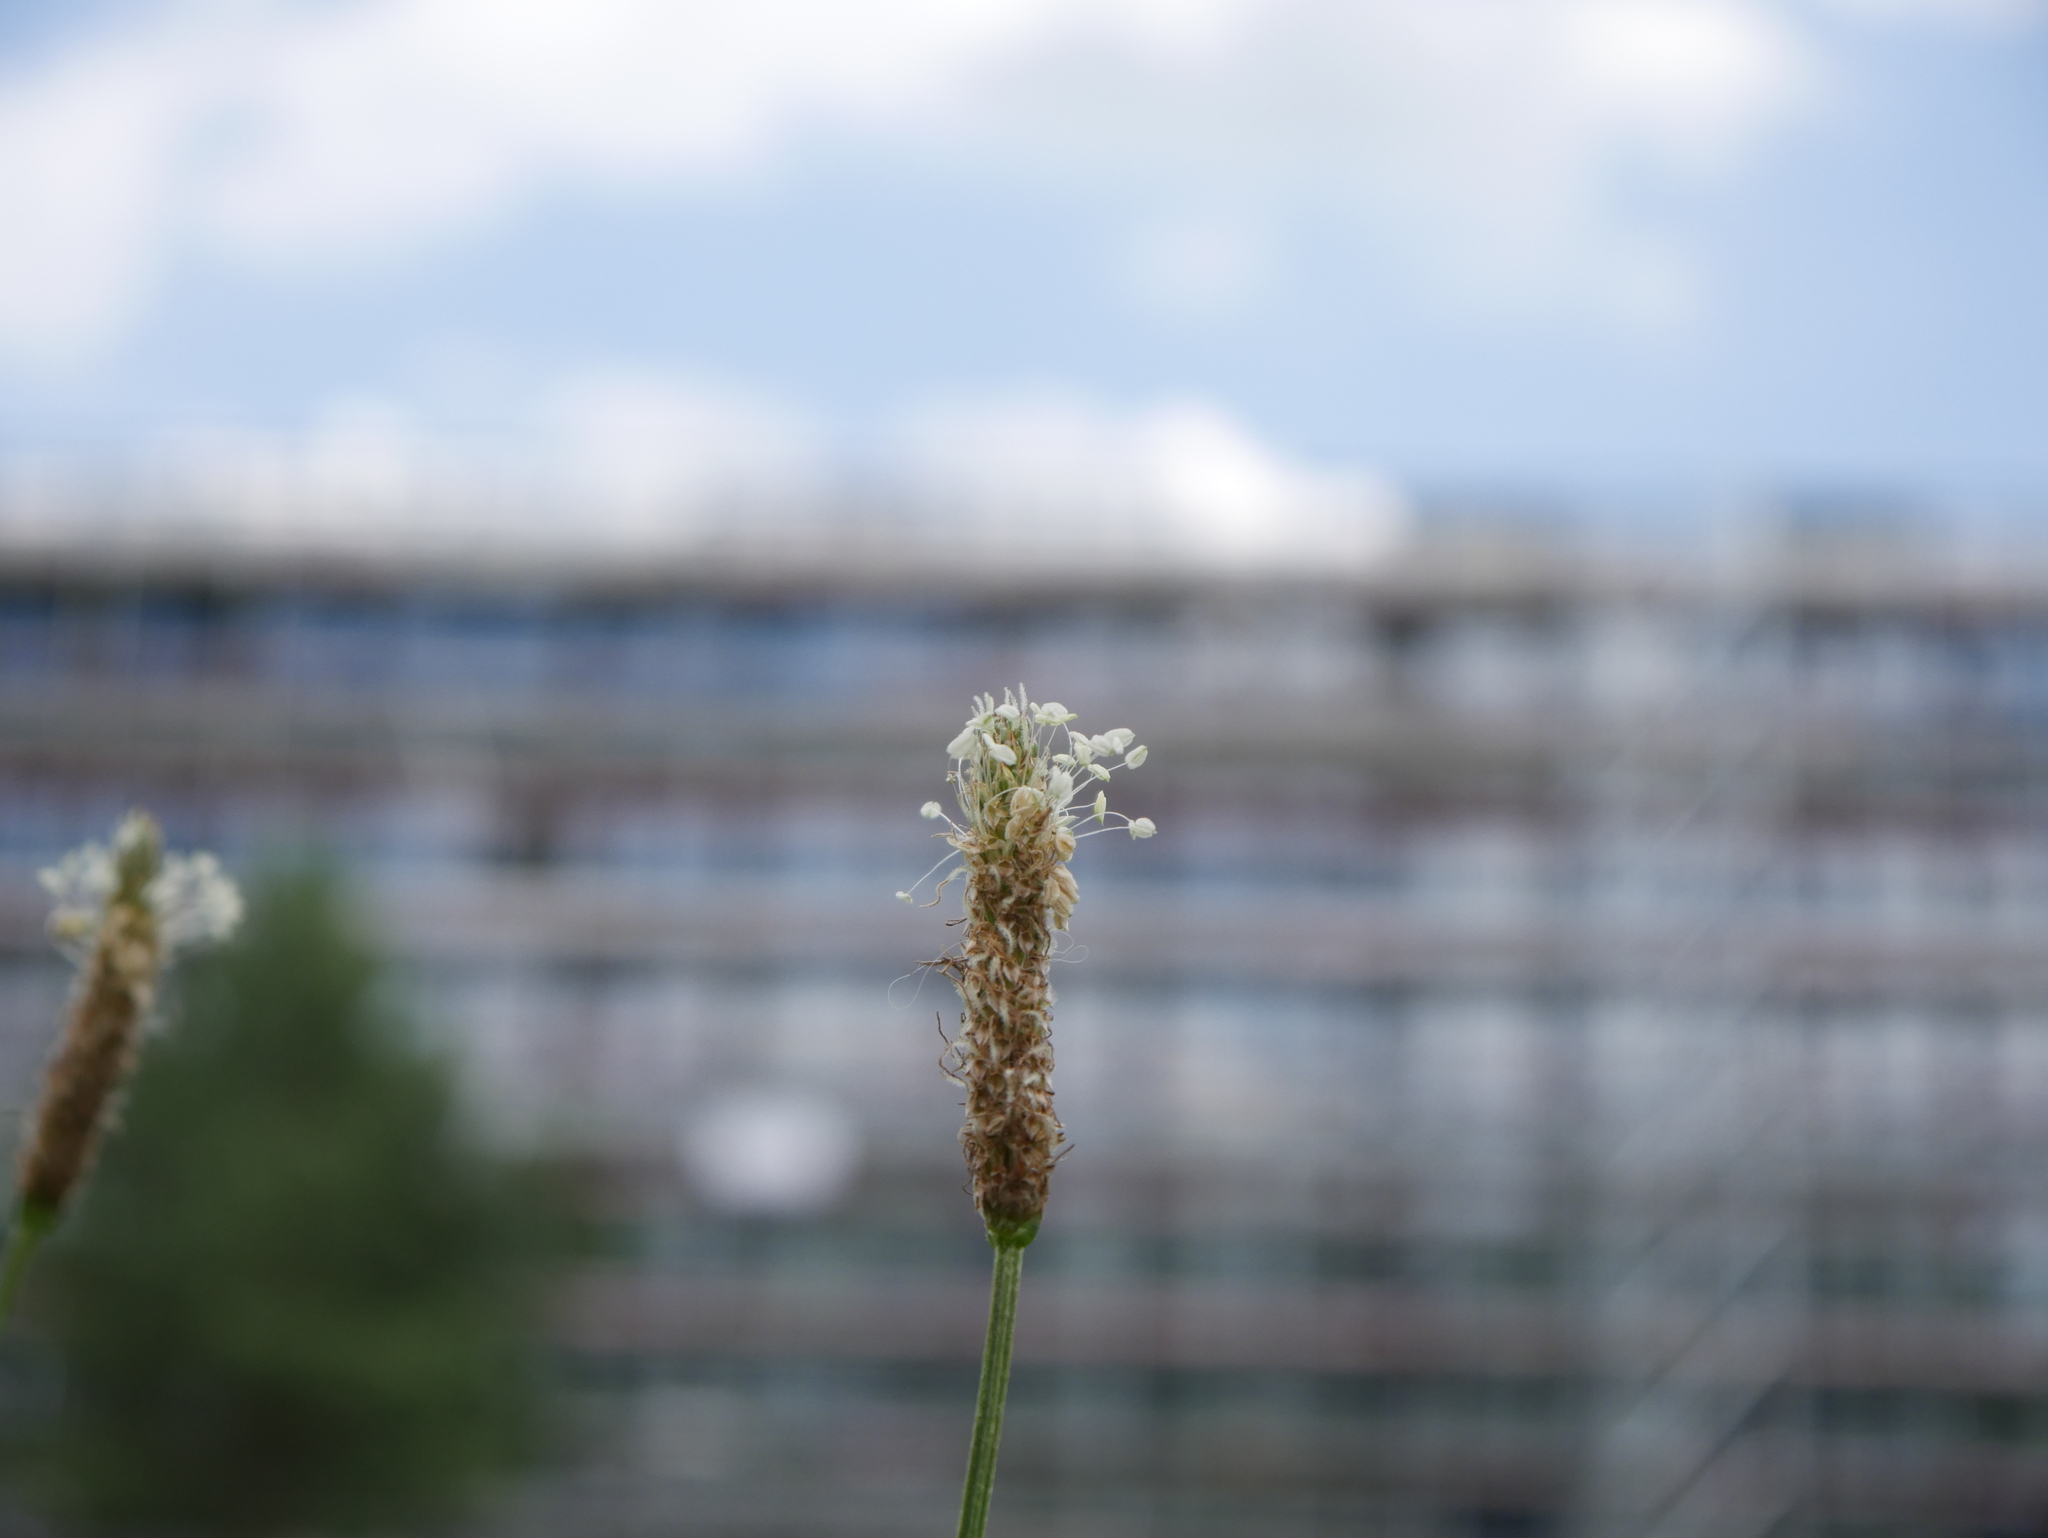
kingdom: Plantae
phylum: Tracheophyta
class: Magnoliopsida
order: Lamiales
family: Plantaginaceae
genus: Plantago
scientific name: Plantago lanceolata
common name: Ribwort plantain
